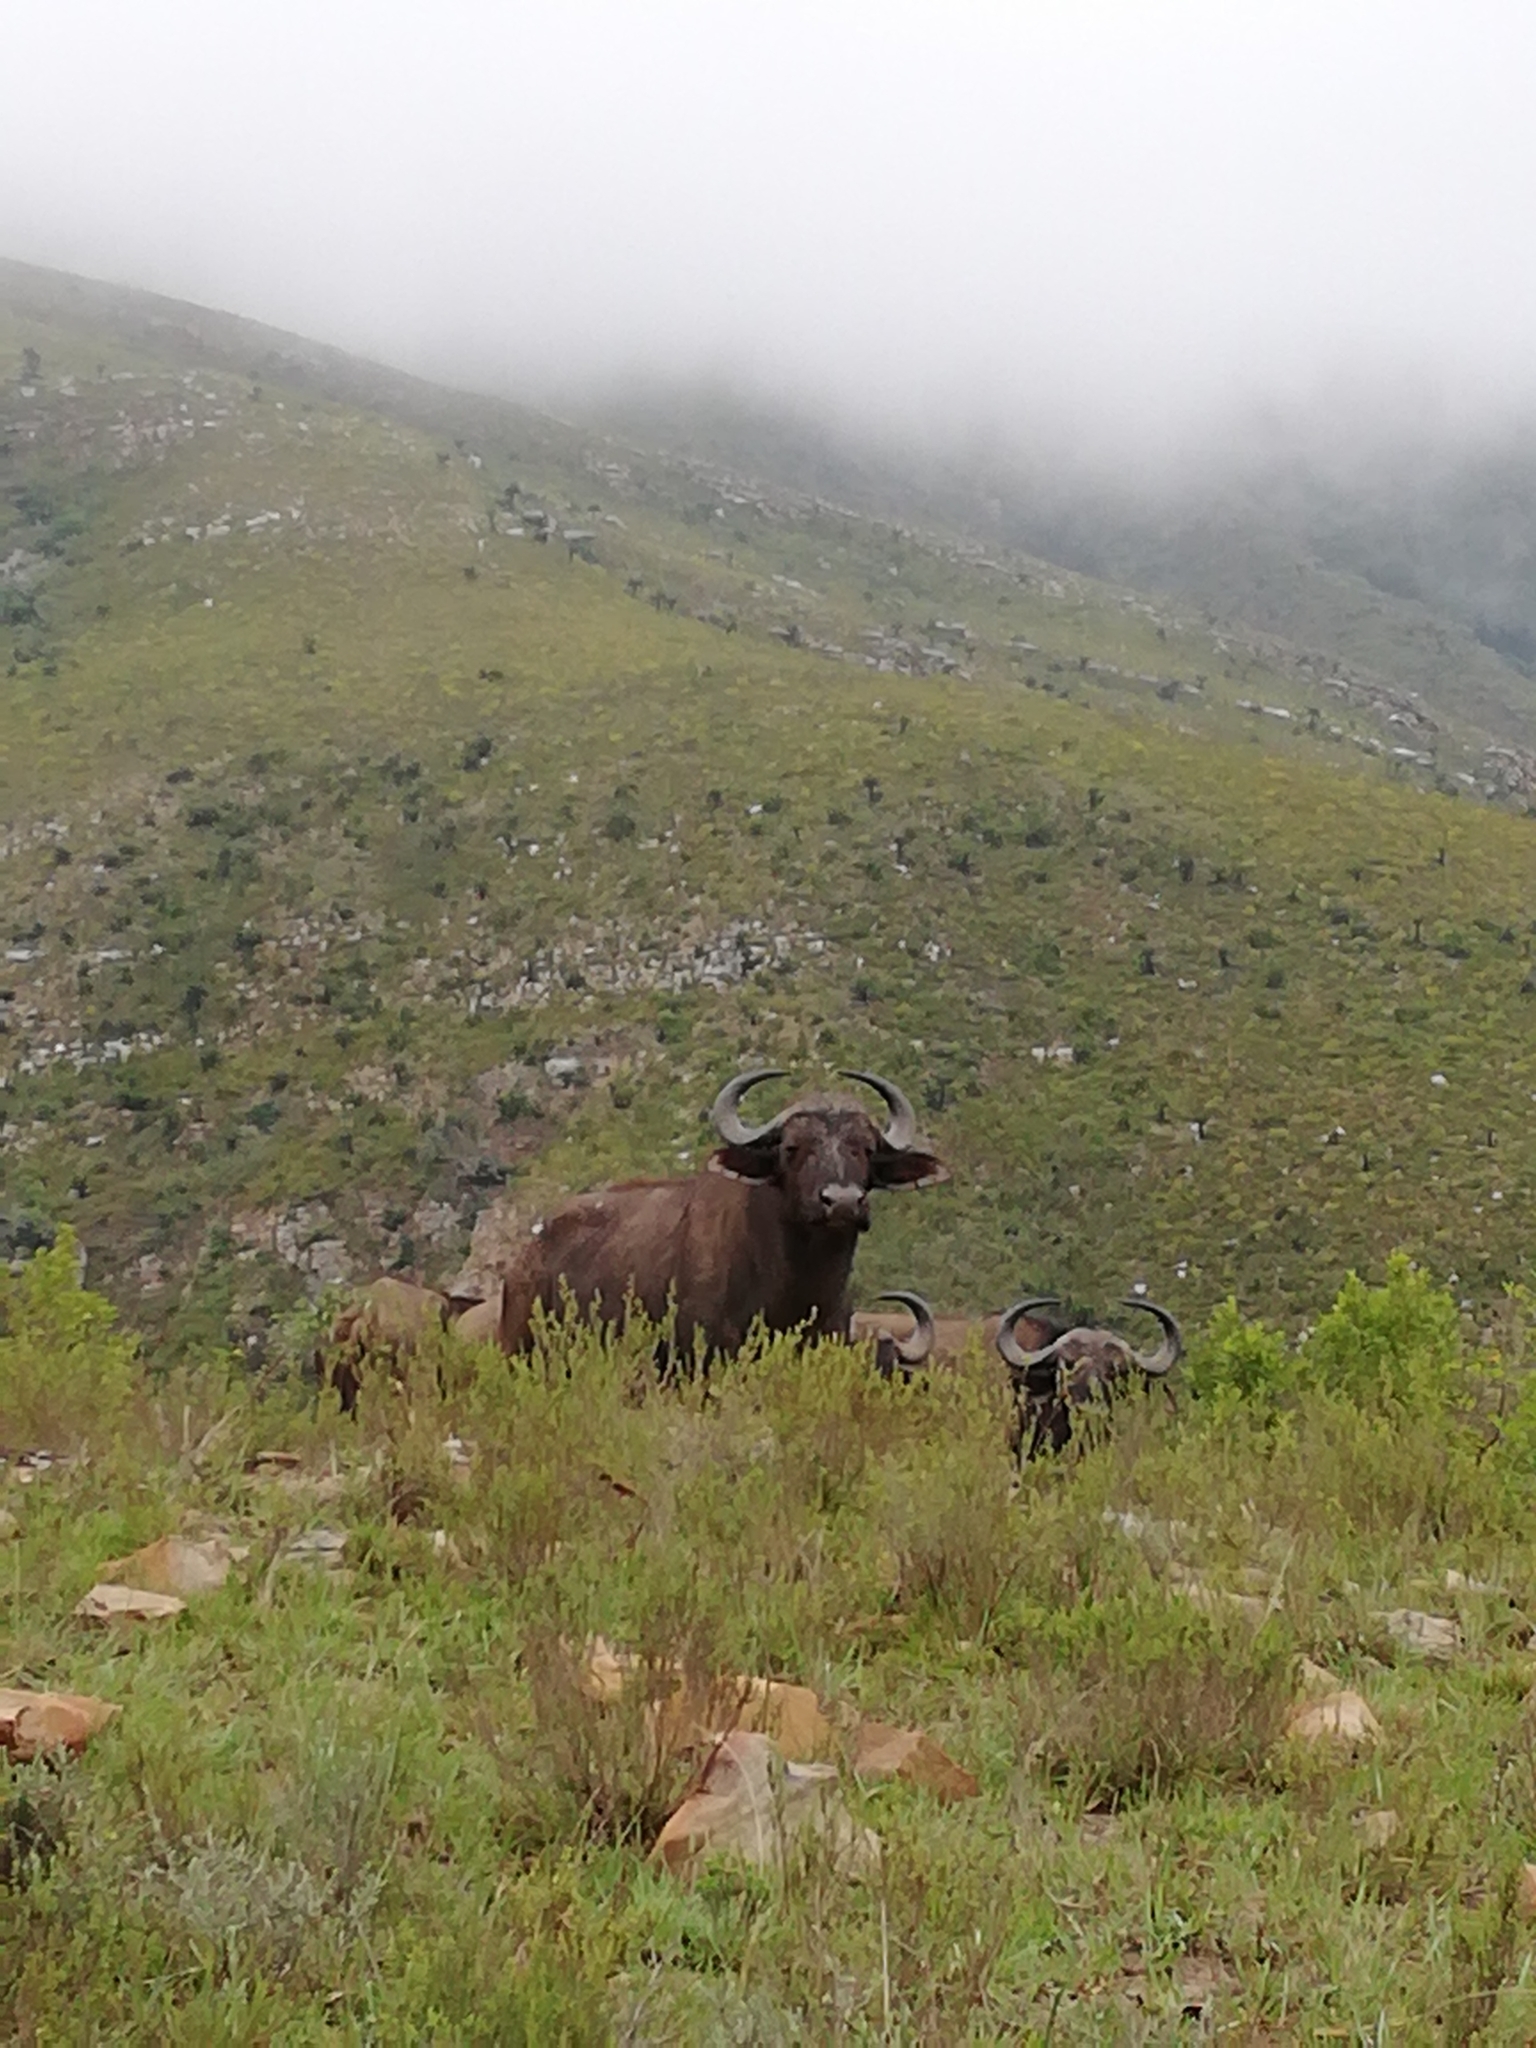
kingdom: Animalia
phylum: Chordata
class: Mammalia
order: Artiodactyla
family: Bovidae
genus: Syncerus
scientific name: Syncerus caffer
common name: African buffalo
